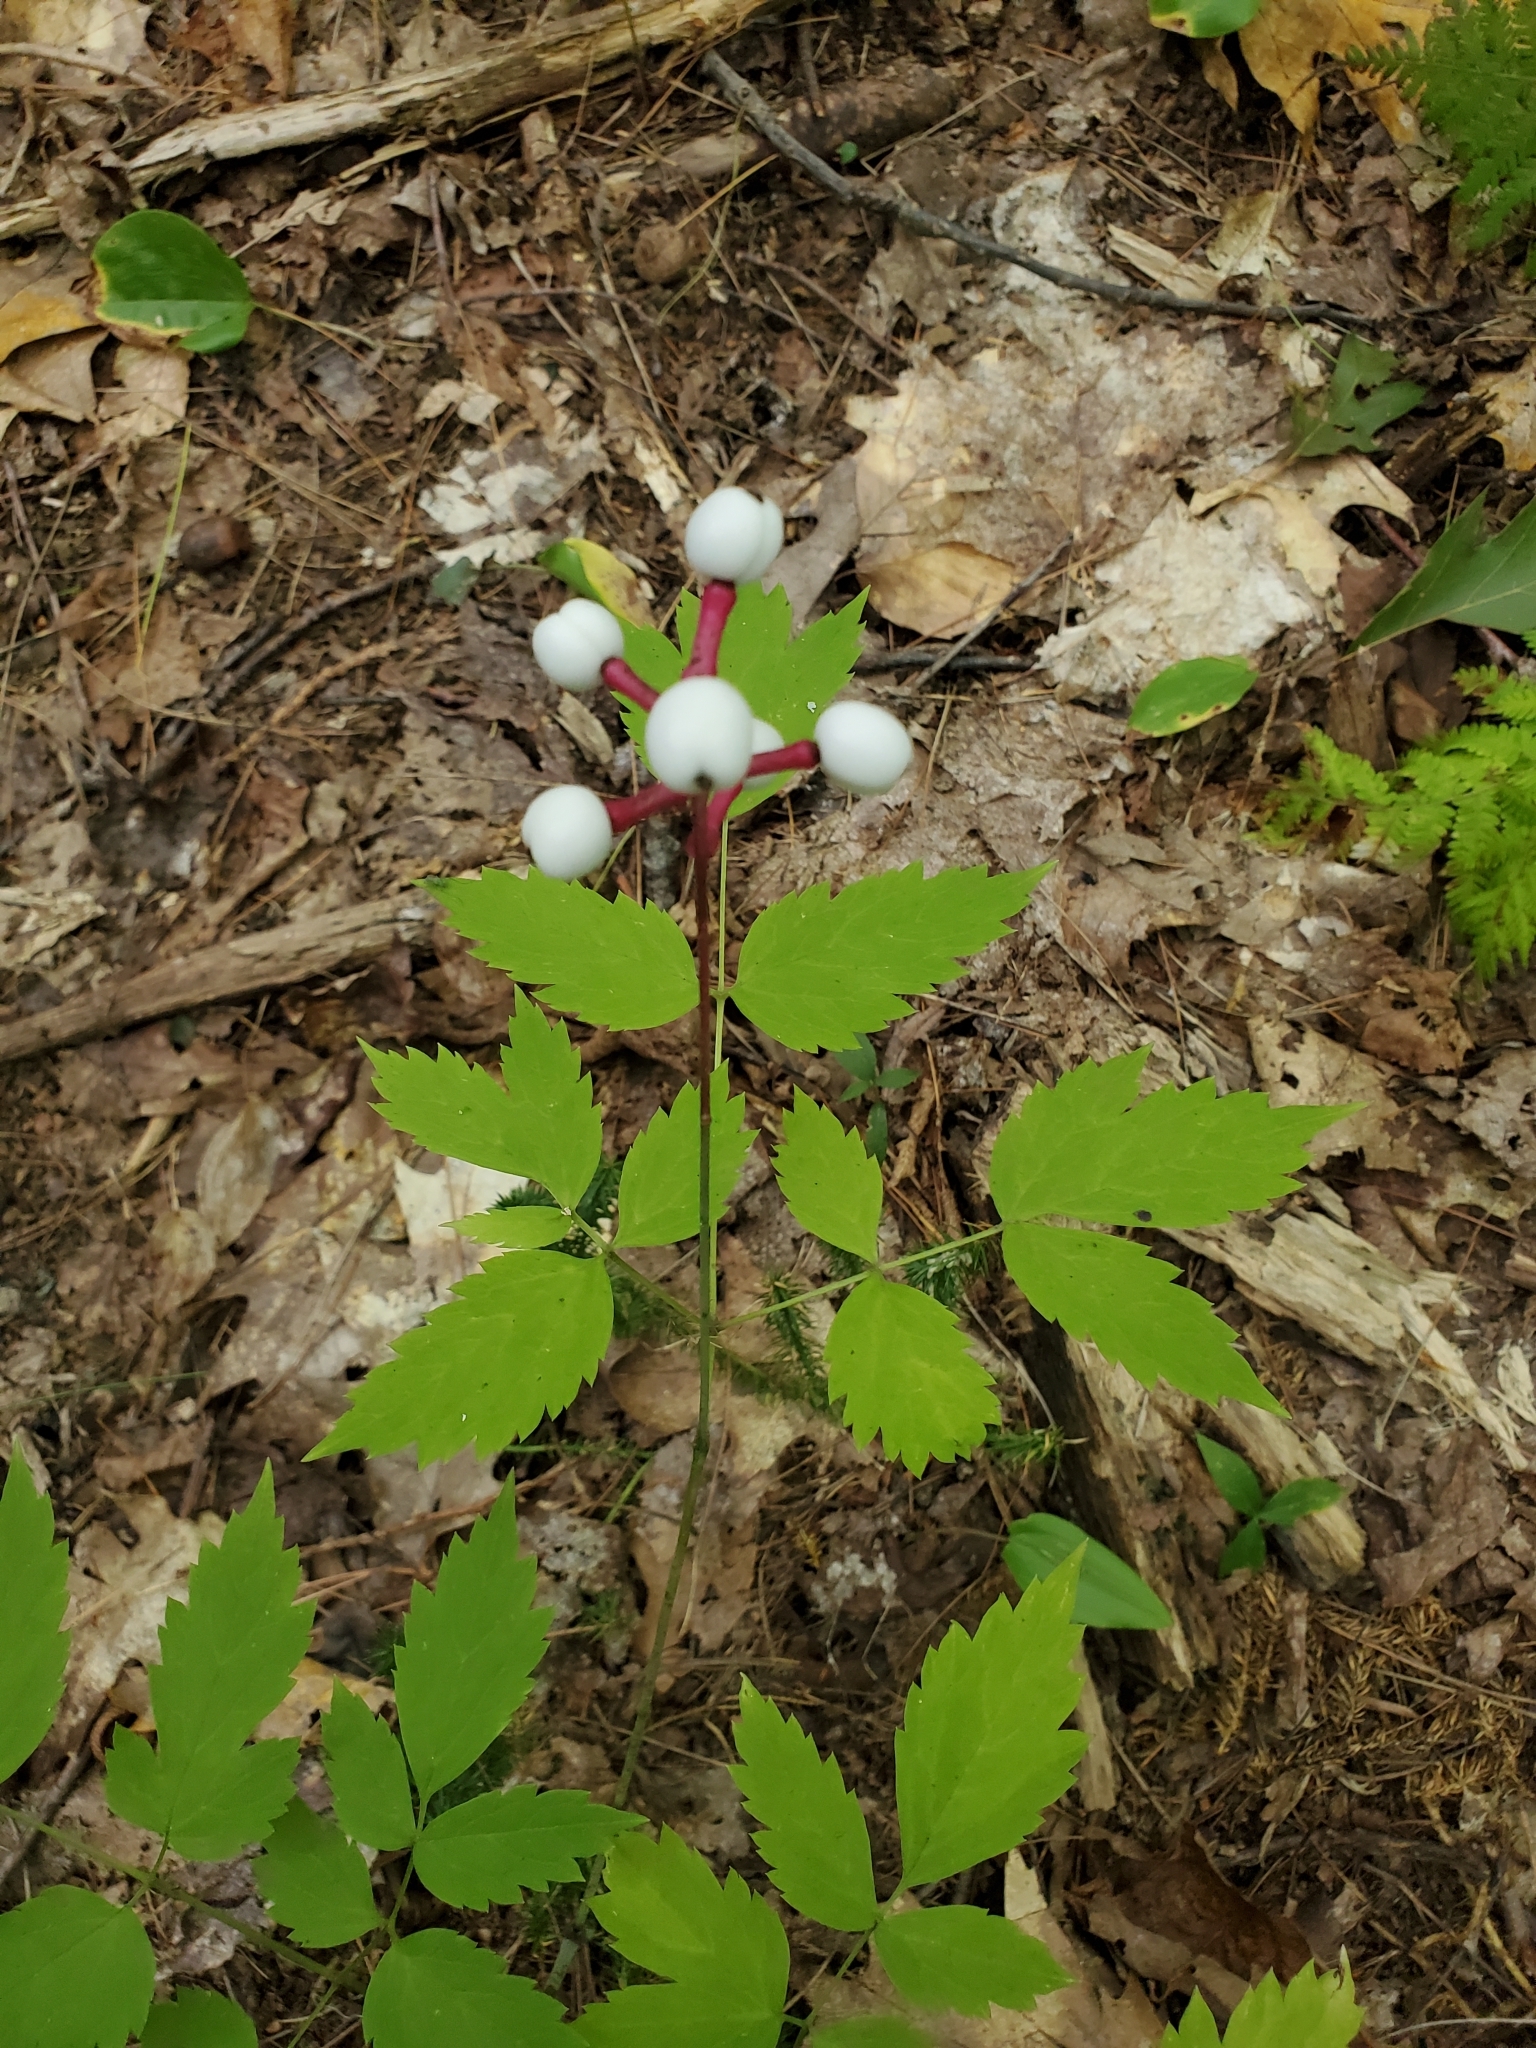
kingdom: Plantae
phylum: Tracheophyta
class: Magnoliopsida
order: Ranunculales
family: Ranunculaceae
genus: Actaea
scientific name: Actaea pachypoda
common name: Doll's-eyes
